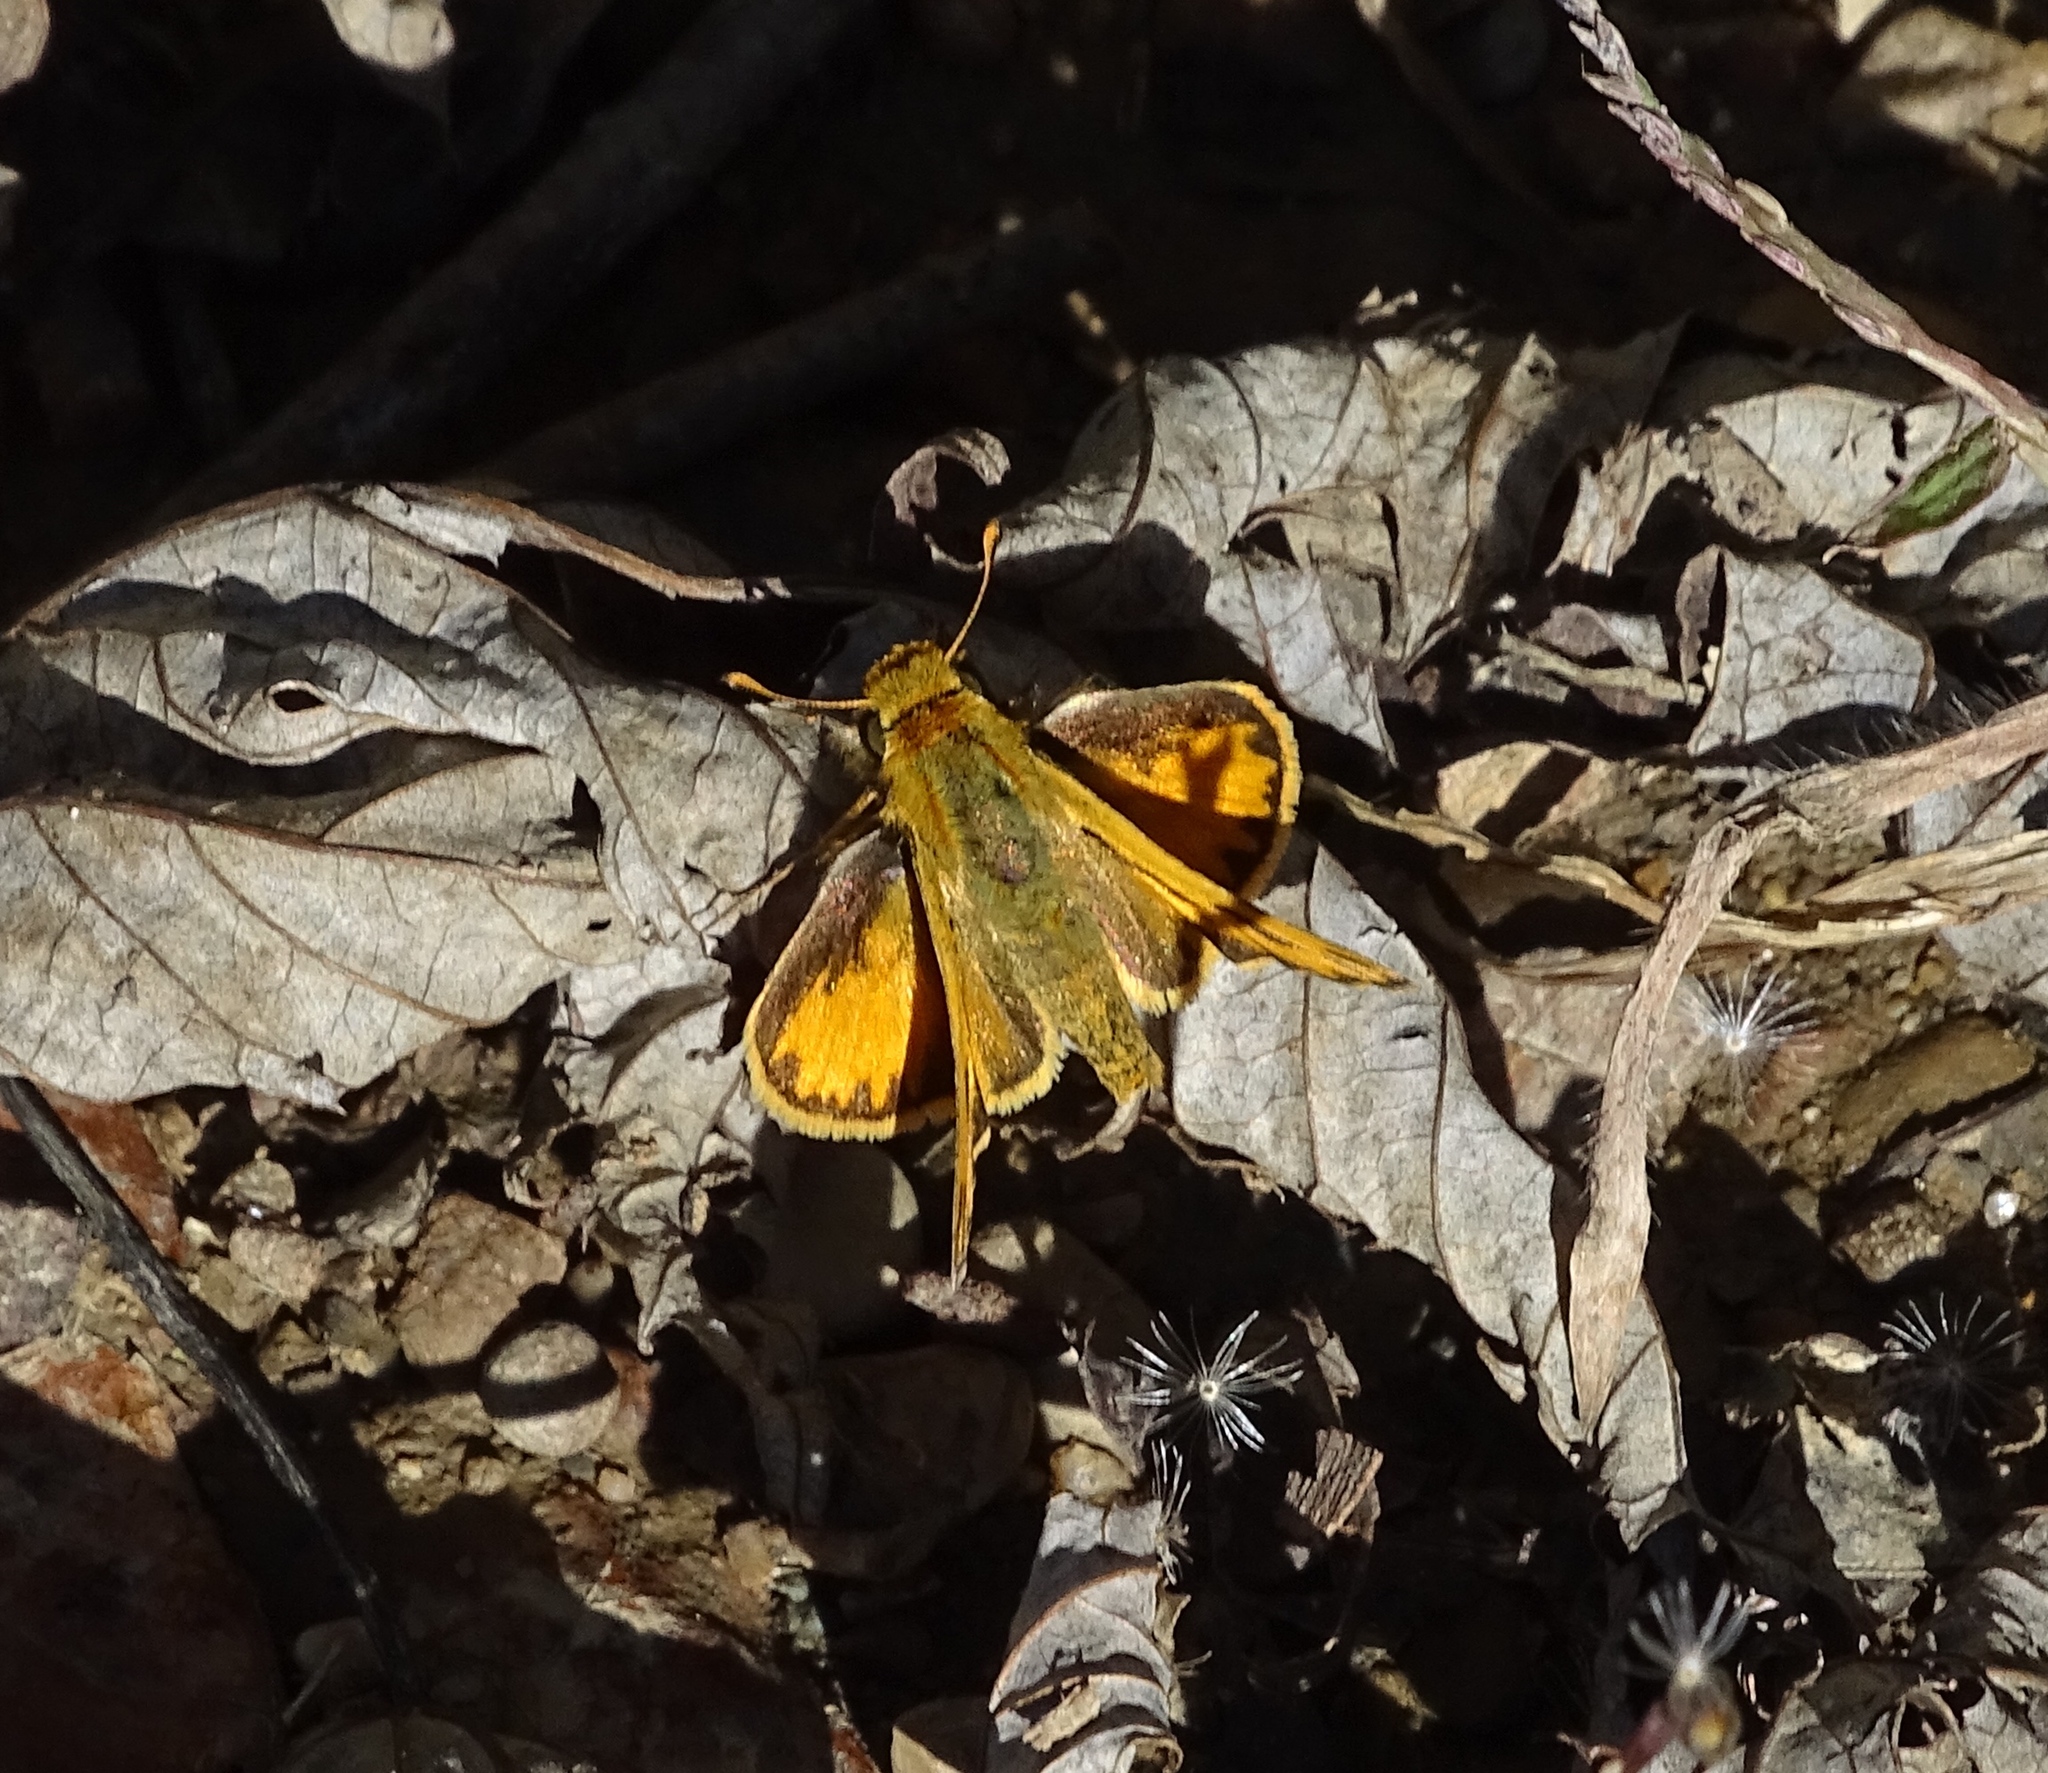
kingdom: Animalia
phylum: Arthropoda
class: Insecta
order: Lepidoptera
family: Hesperiidae
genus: Hylephila
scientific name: Hylephila phyleus
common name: Fiery skipper
